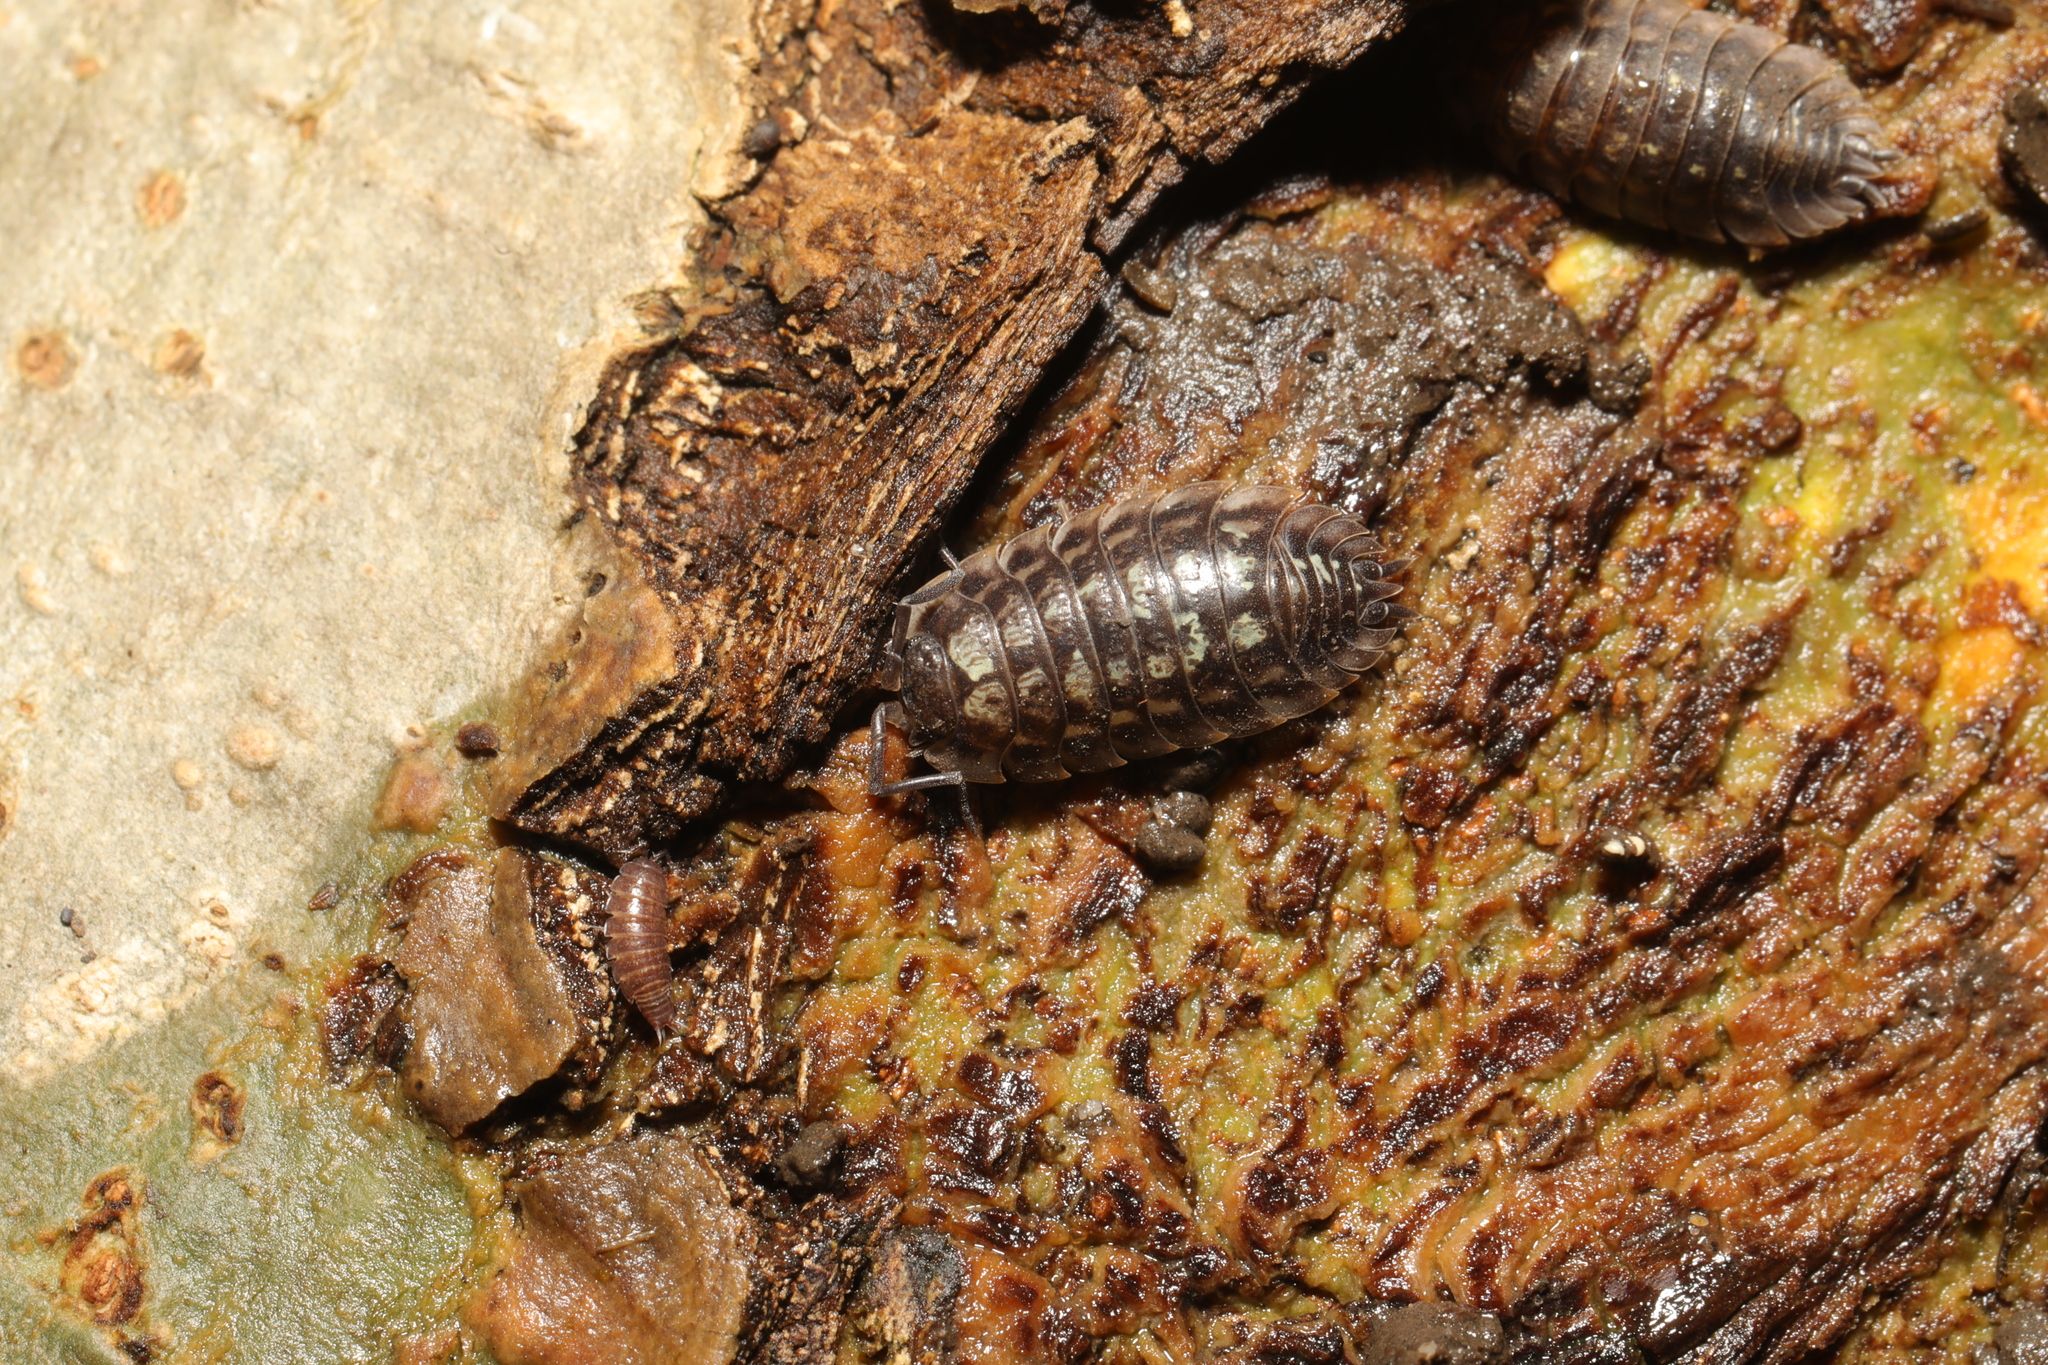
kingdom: Animalia
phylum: Arthropoda
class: Malacostraca
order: Isopoda
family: Oniscidae
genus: Oniscus
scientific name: Oniscus asellus
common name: Common shiny woodlouse
